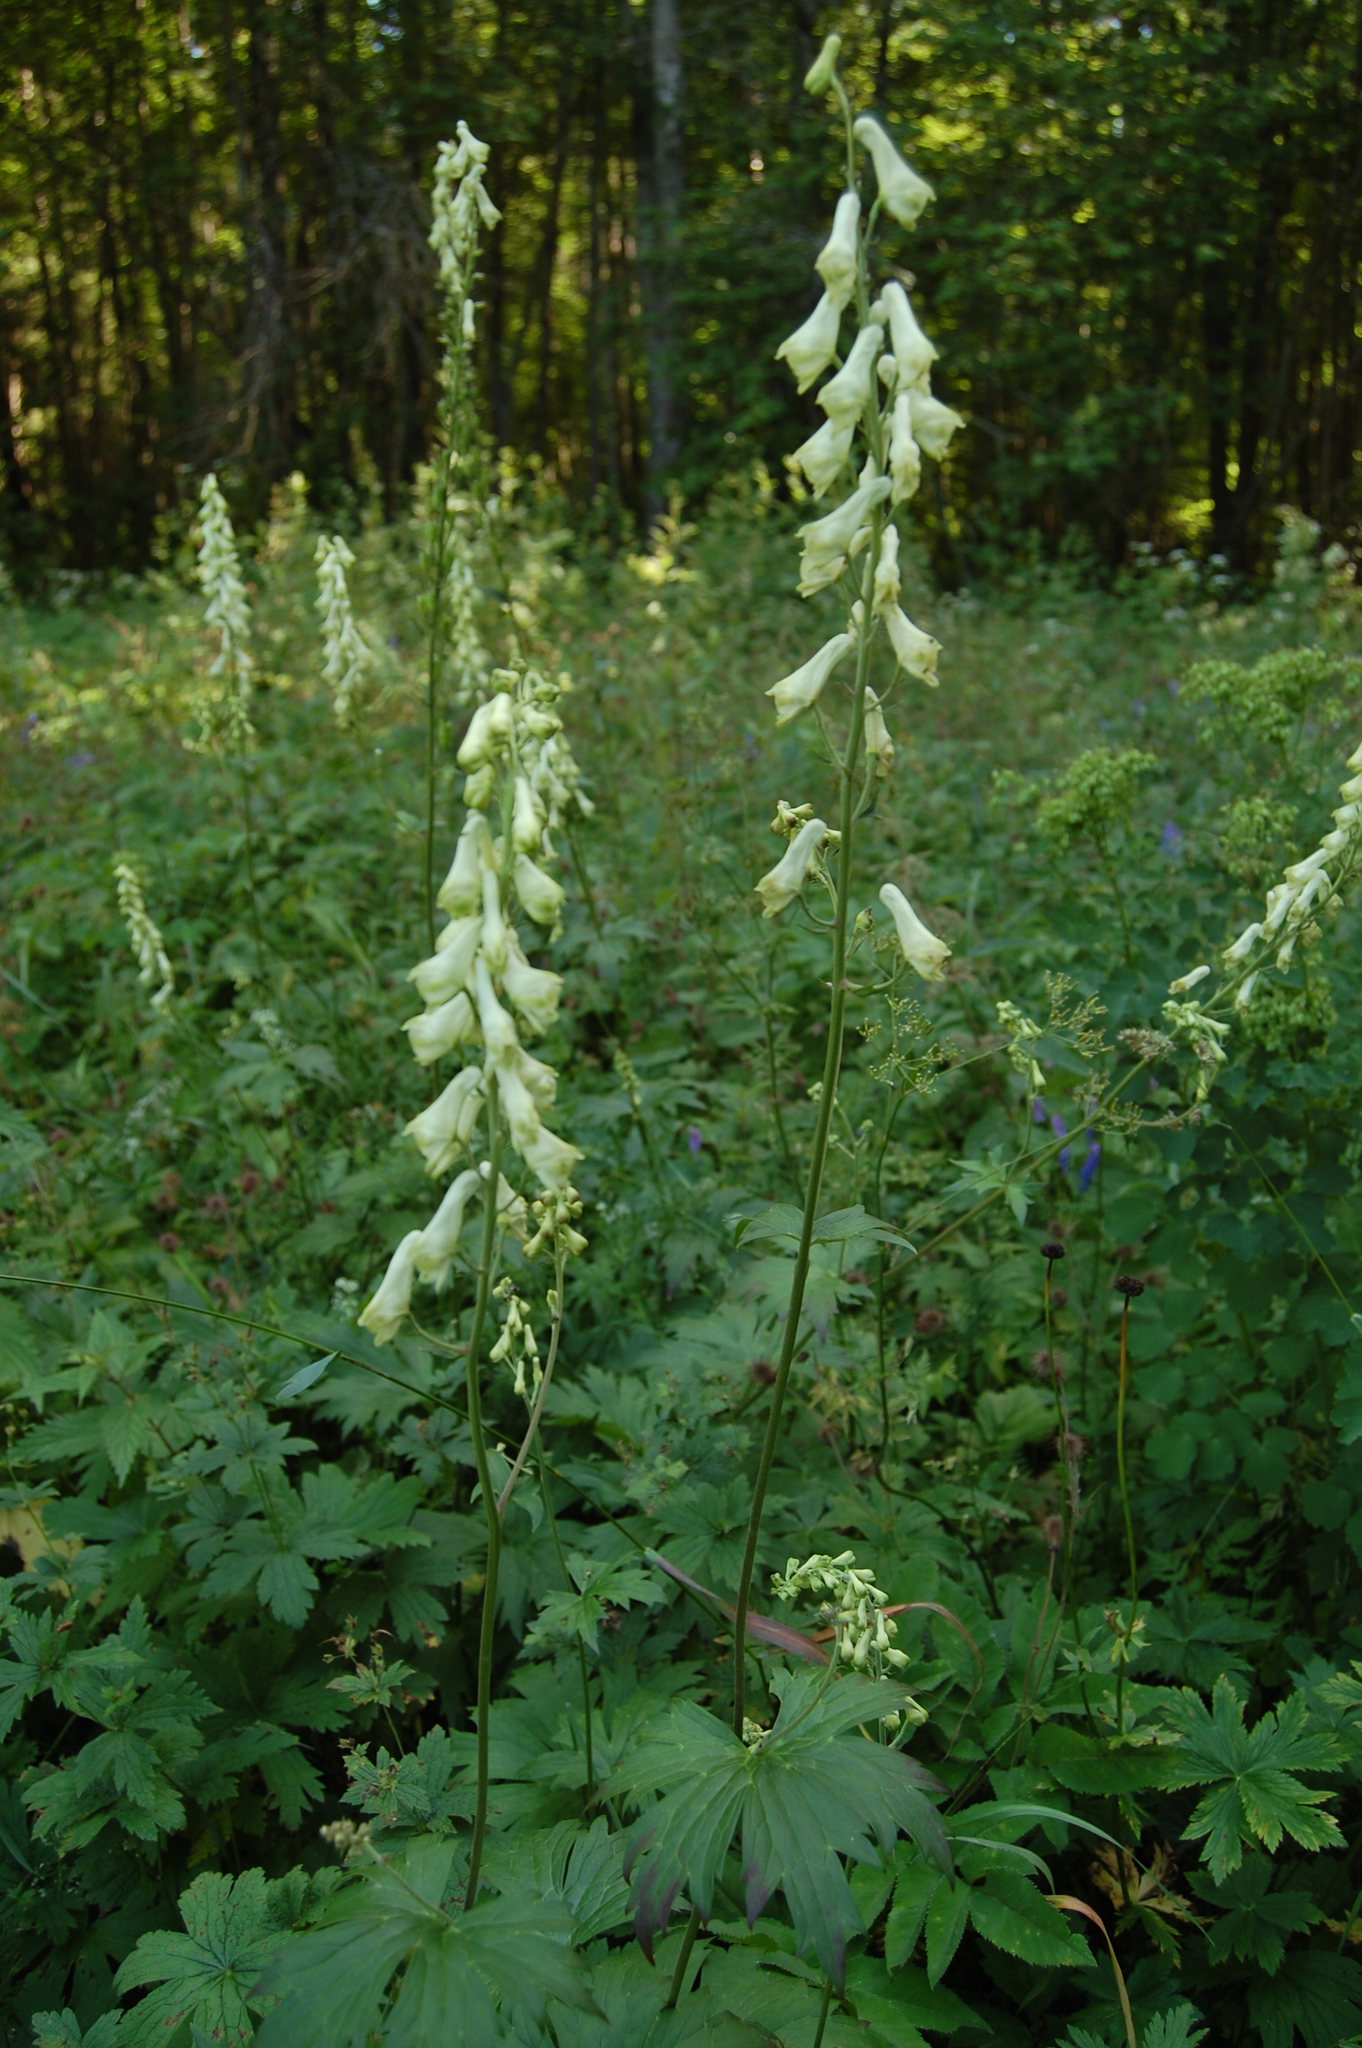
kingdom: Plantae
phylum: Tracheophyta
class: Magnoliopsida
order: Ranunculales
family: Ranunculaceae
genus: Aconitum
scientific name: Aconitum lasiostomum
